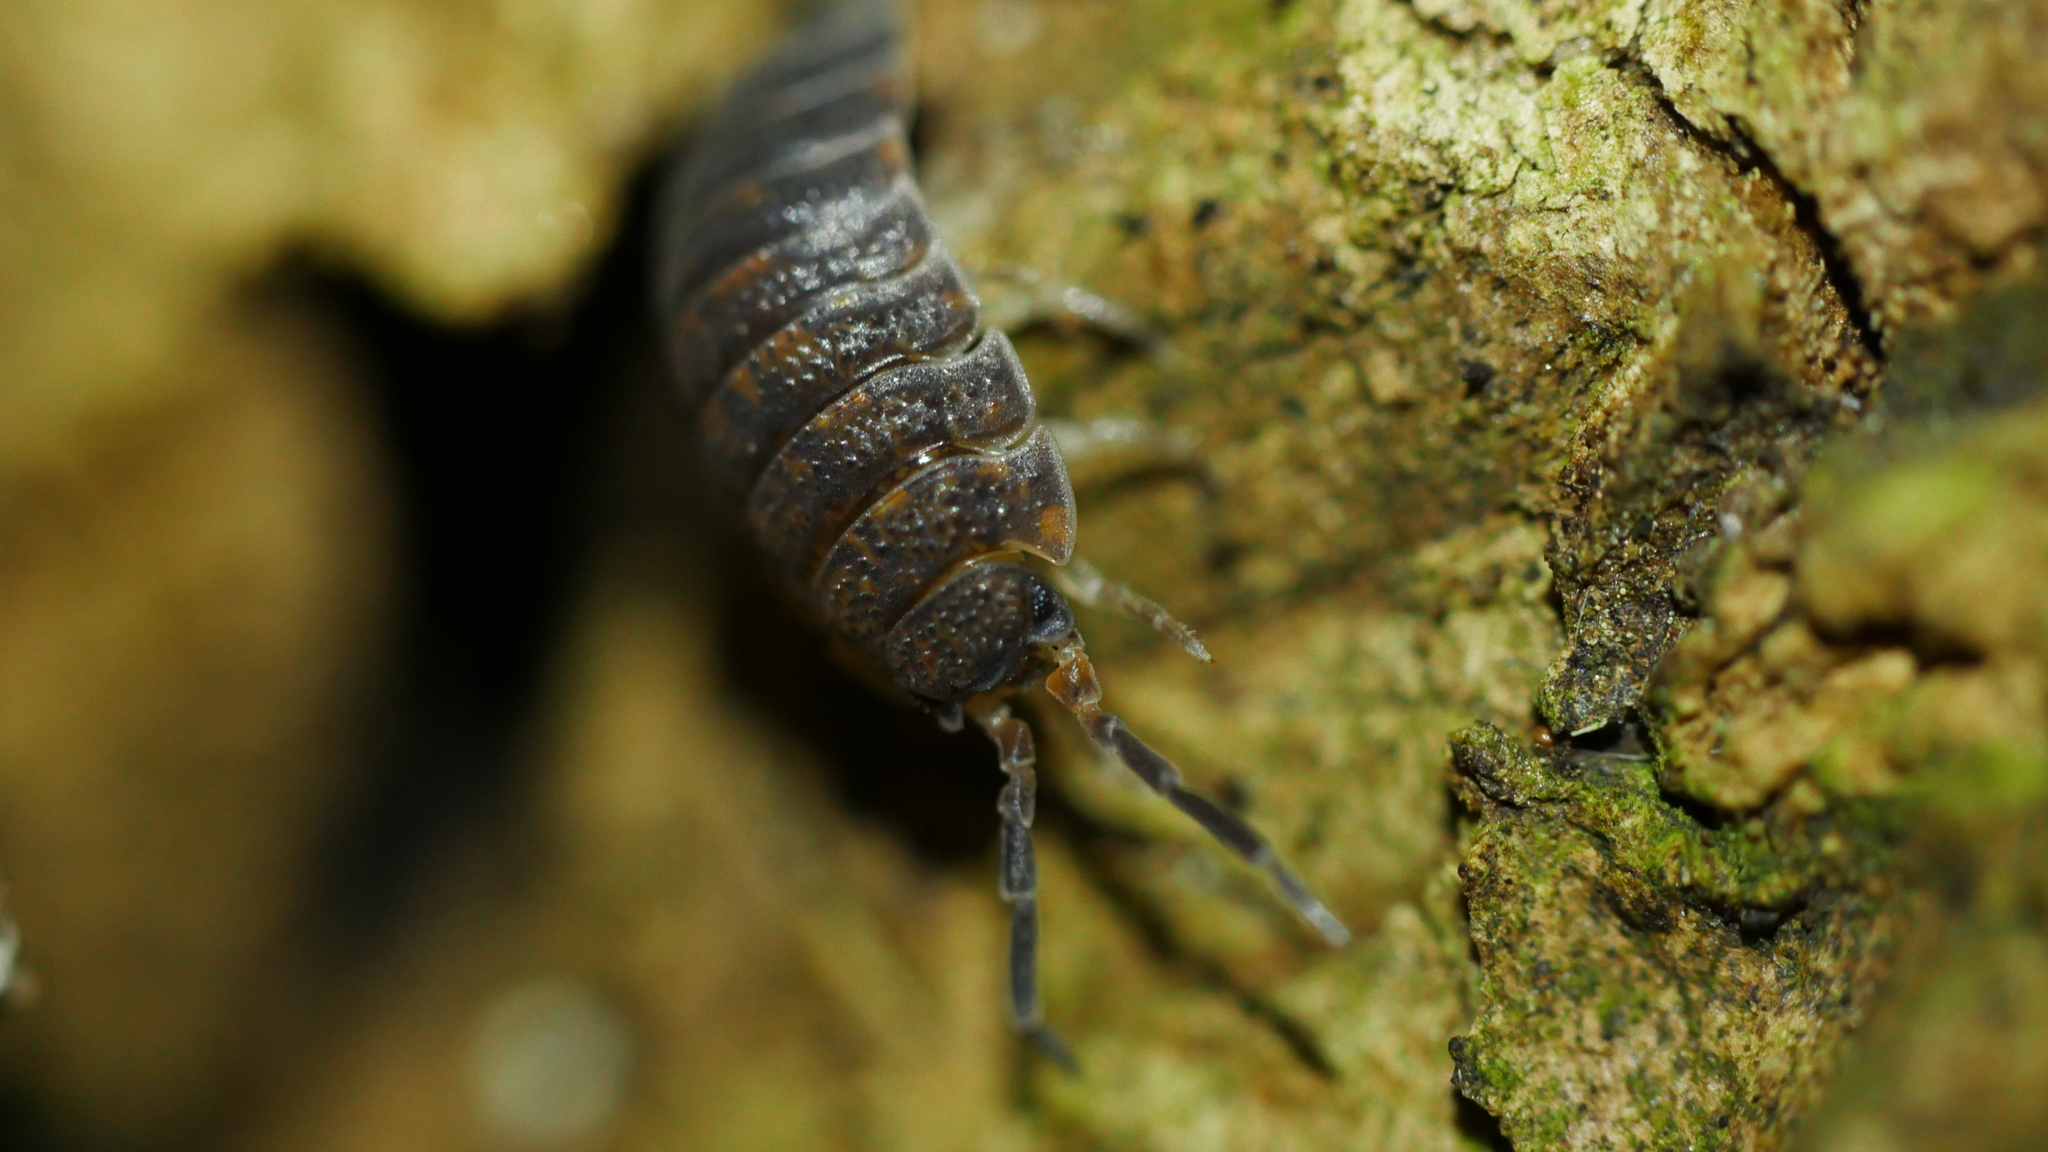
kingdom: Animalia
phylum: Arthropoda
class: Malacostraca
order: Isopoda
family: Porcellionidae
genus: Porcellio
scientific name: Porcellio scaber
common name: Common rough woodlouse
